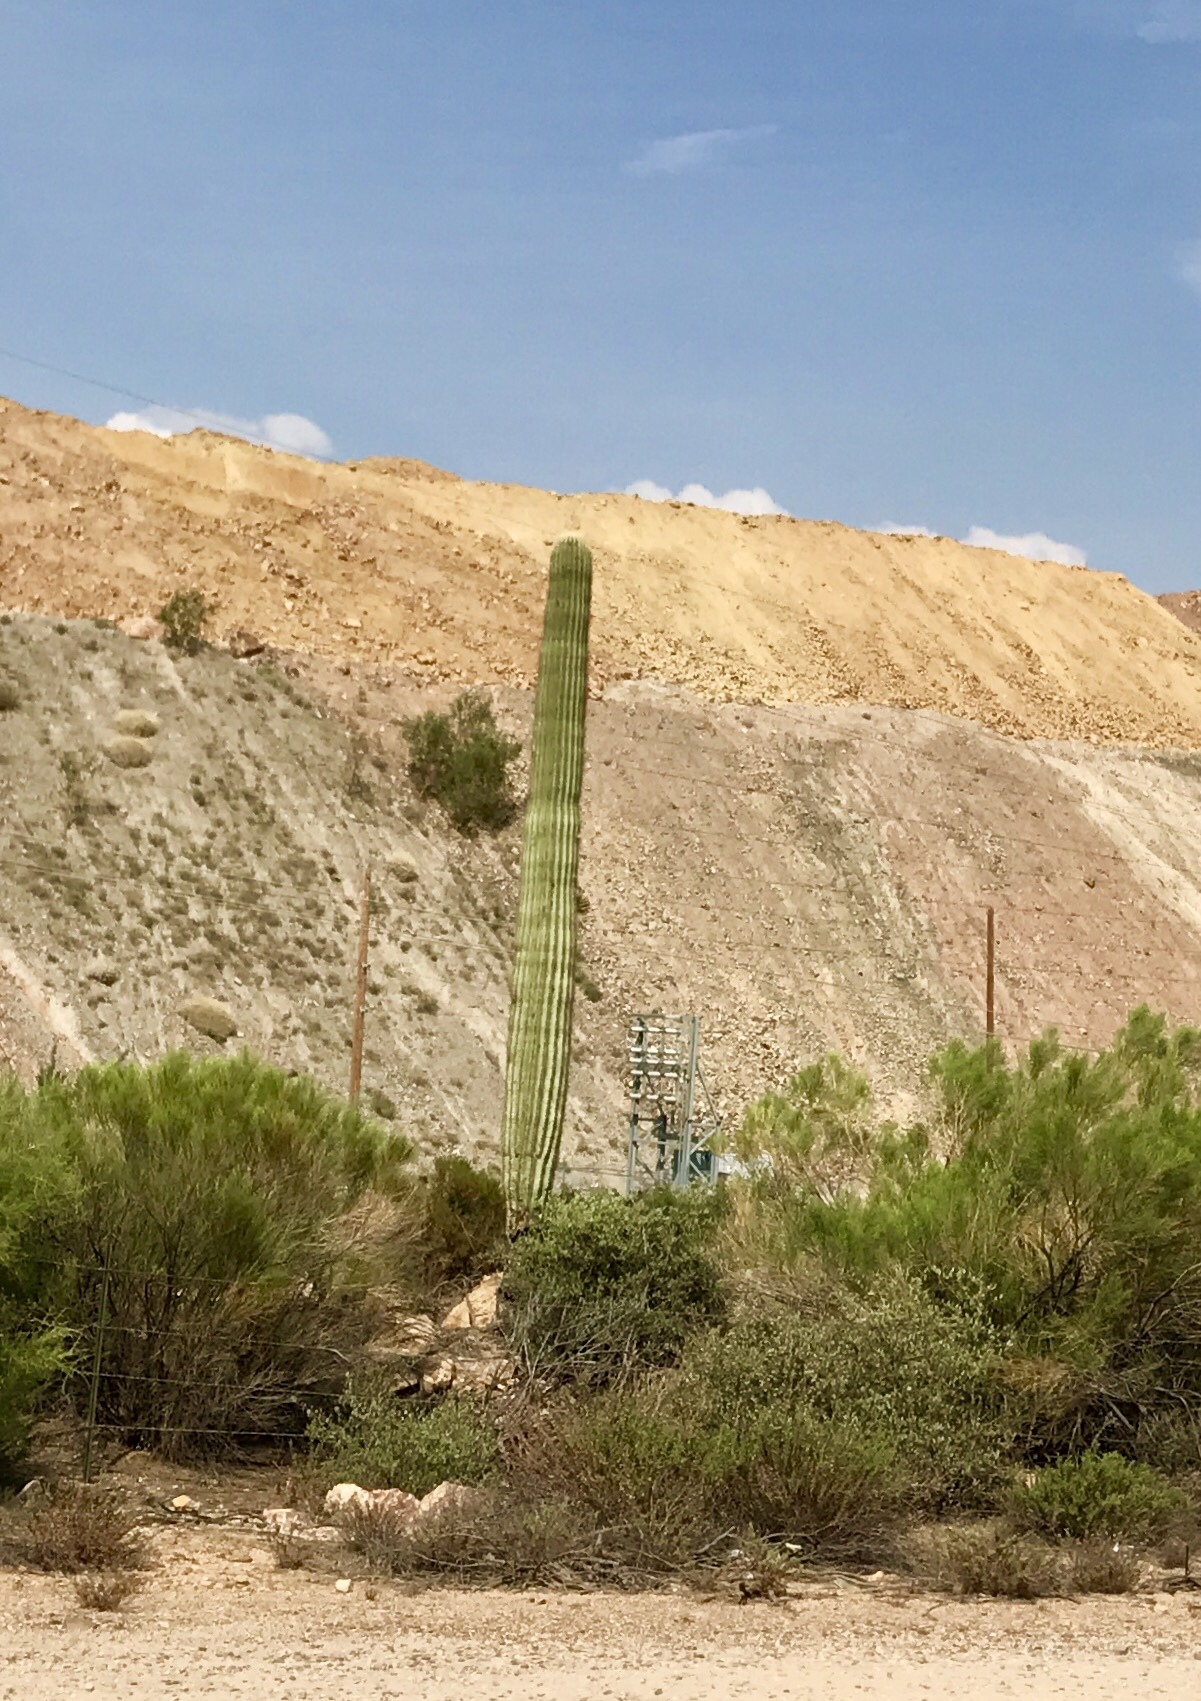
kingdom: Plantae
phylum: Tracheophyta
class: Magnoliopsida
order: Caryophyllales
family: Cactaceae
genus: Carnegiea
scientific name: Carnegiea gigantea
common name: Saguaro
